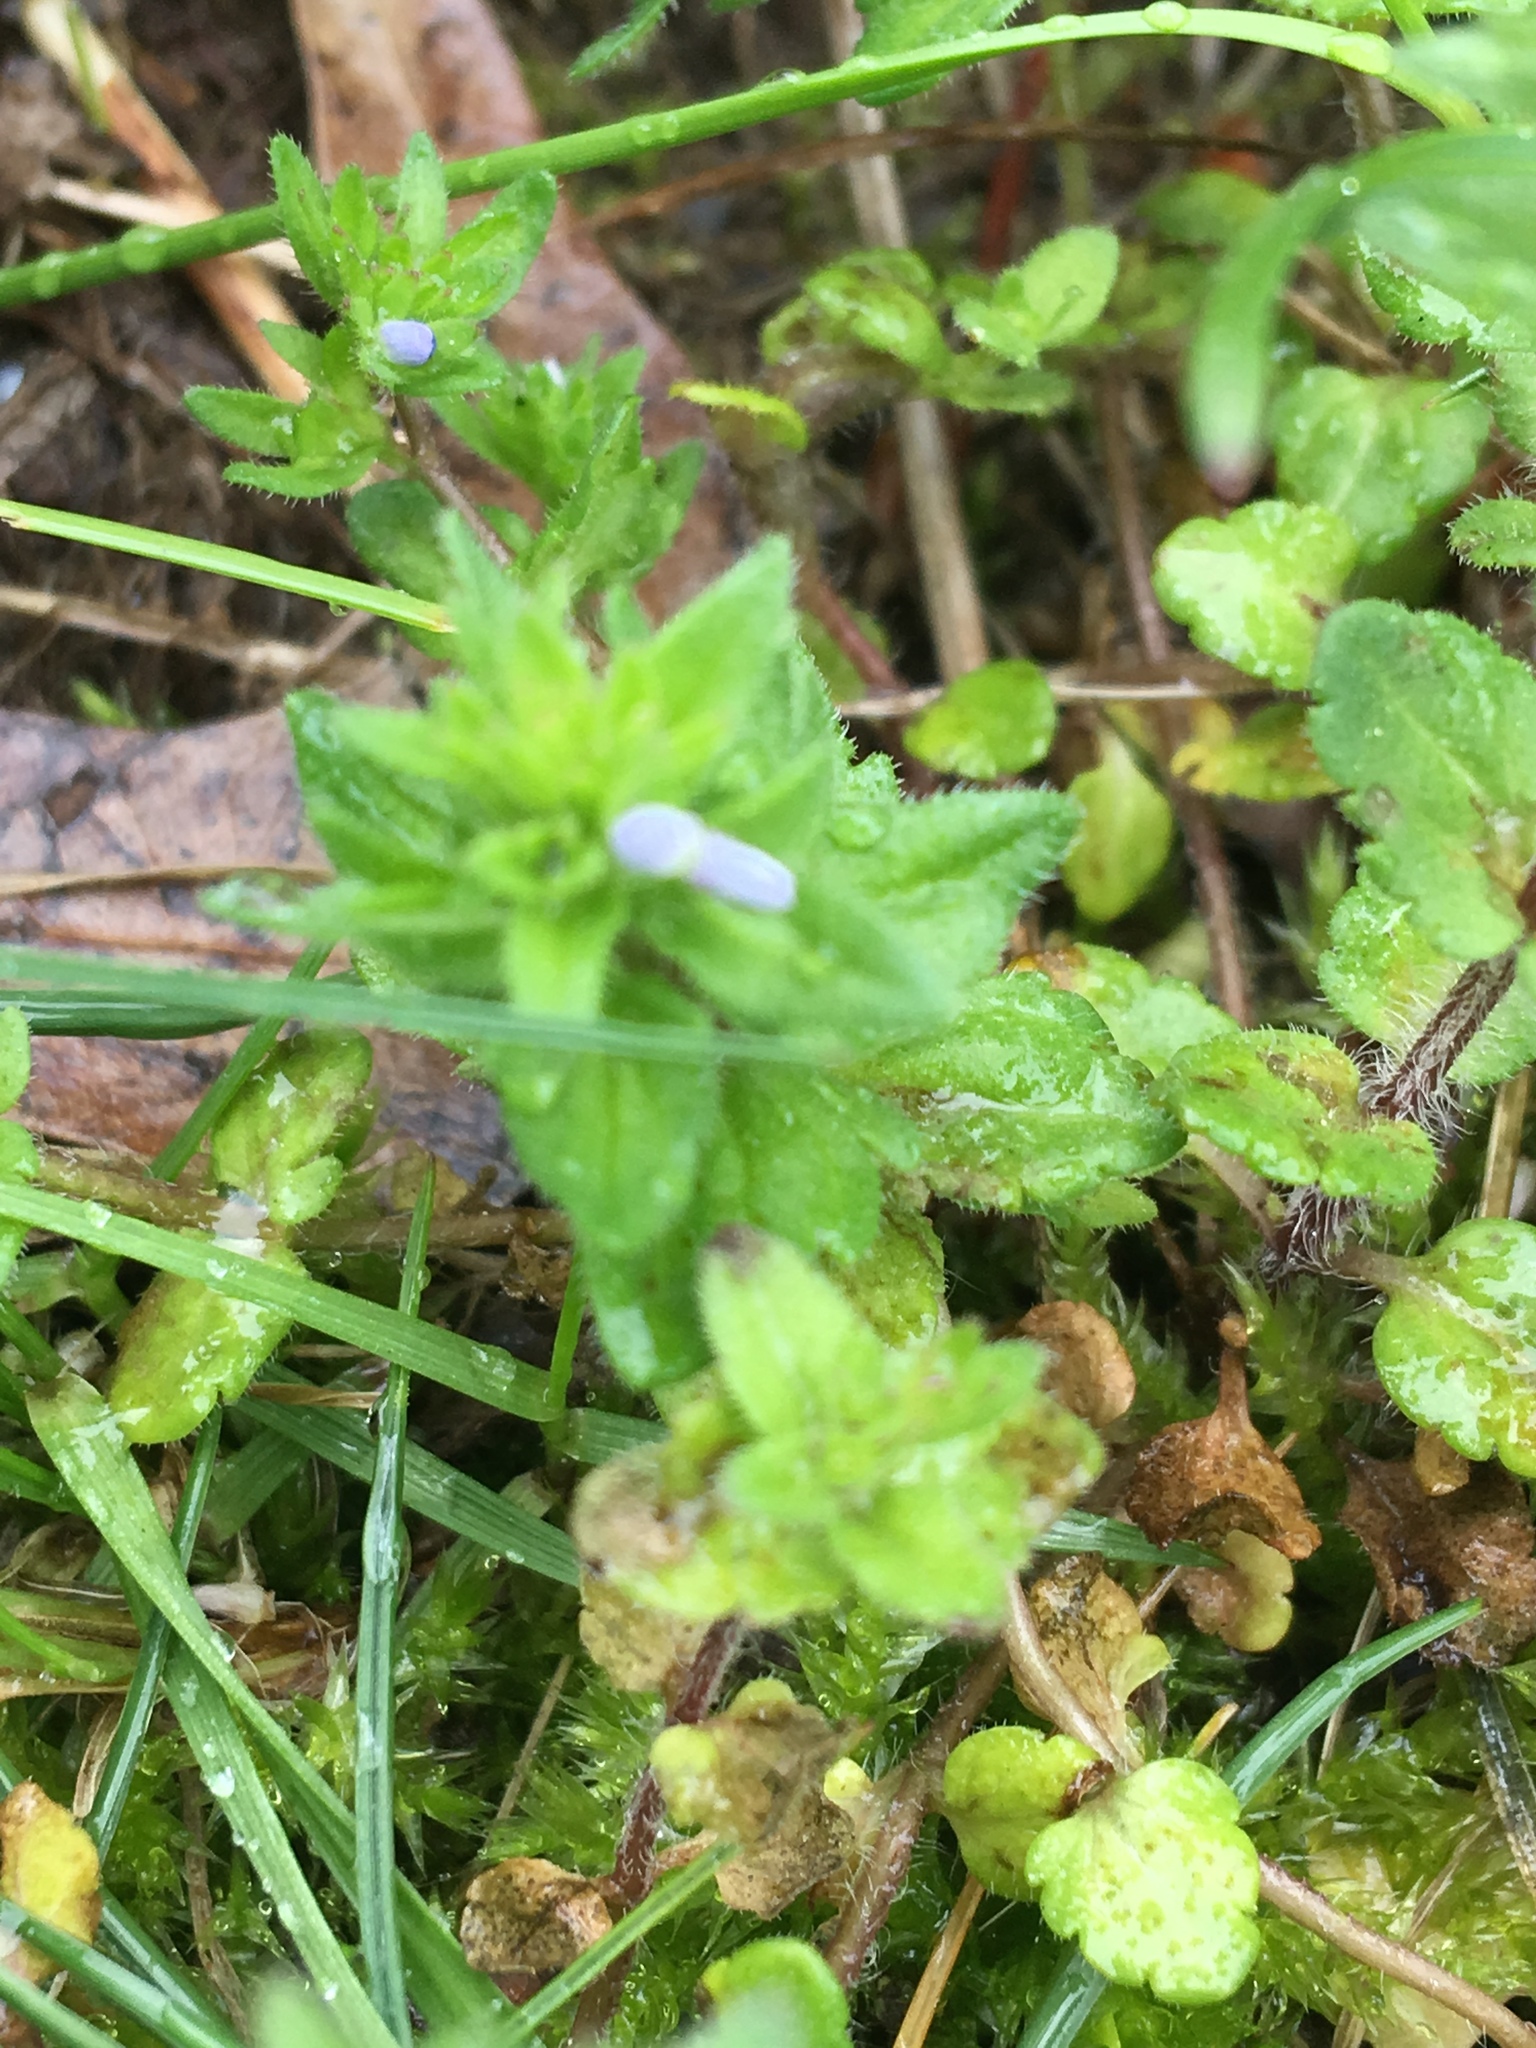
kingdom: Plantae
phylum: Tracheophyta
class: Magnoliopsida
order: Lamiales
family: Plantaginaceae
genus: Veronica
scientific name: Veronica arvensis
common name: Corn speedwell
